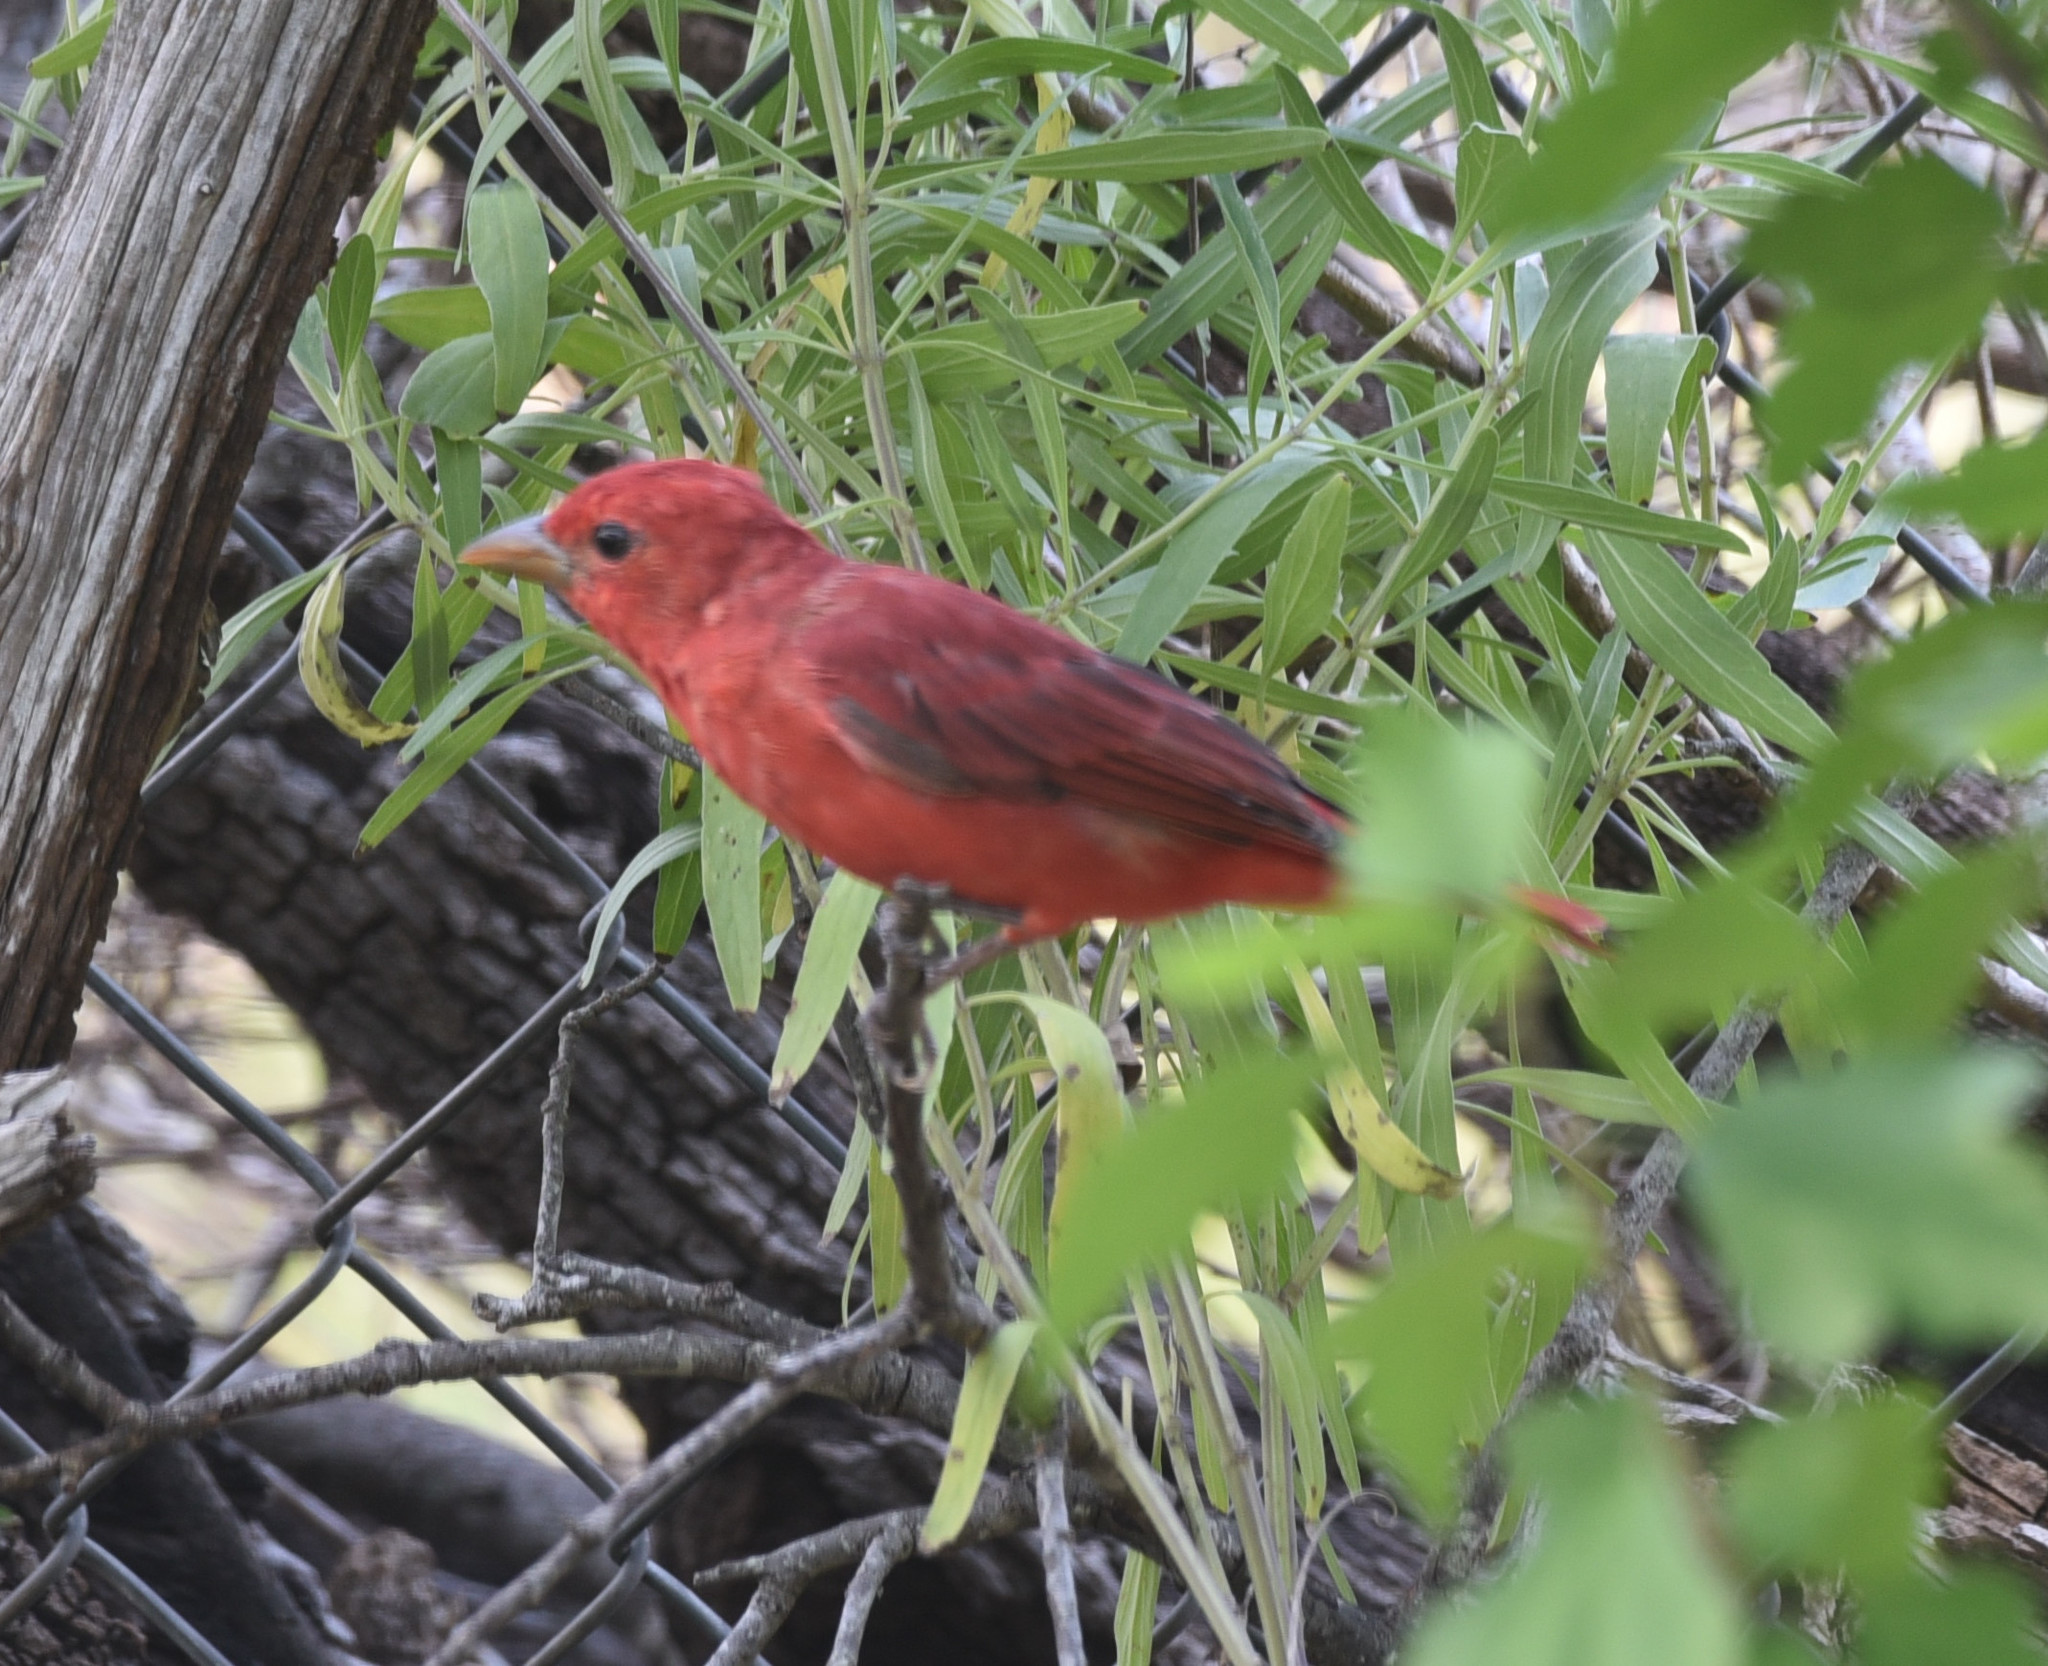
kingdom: Animalia
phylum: Chordata
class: Aves
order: Passeriformes
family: Cardinalidae
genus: Piranga
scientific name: Piranga rubra
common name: Summer tanager
